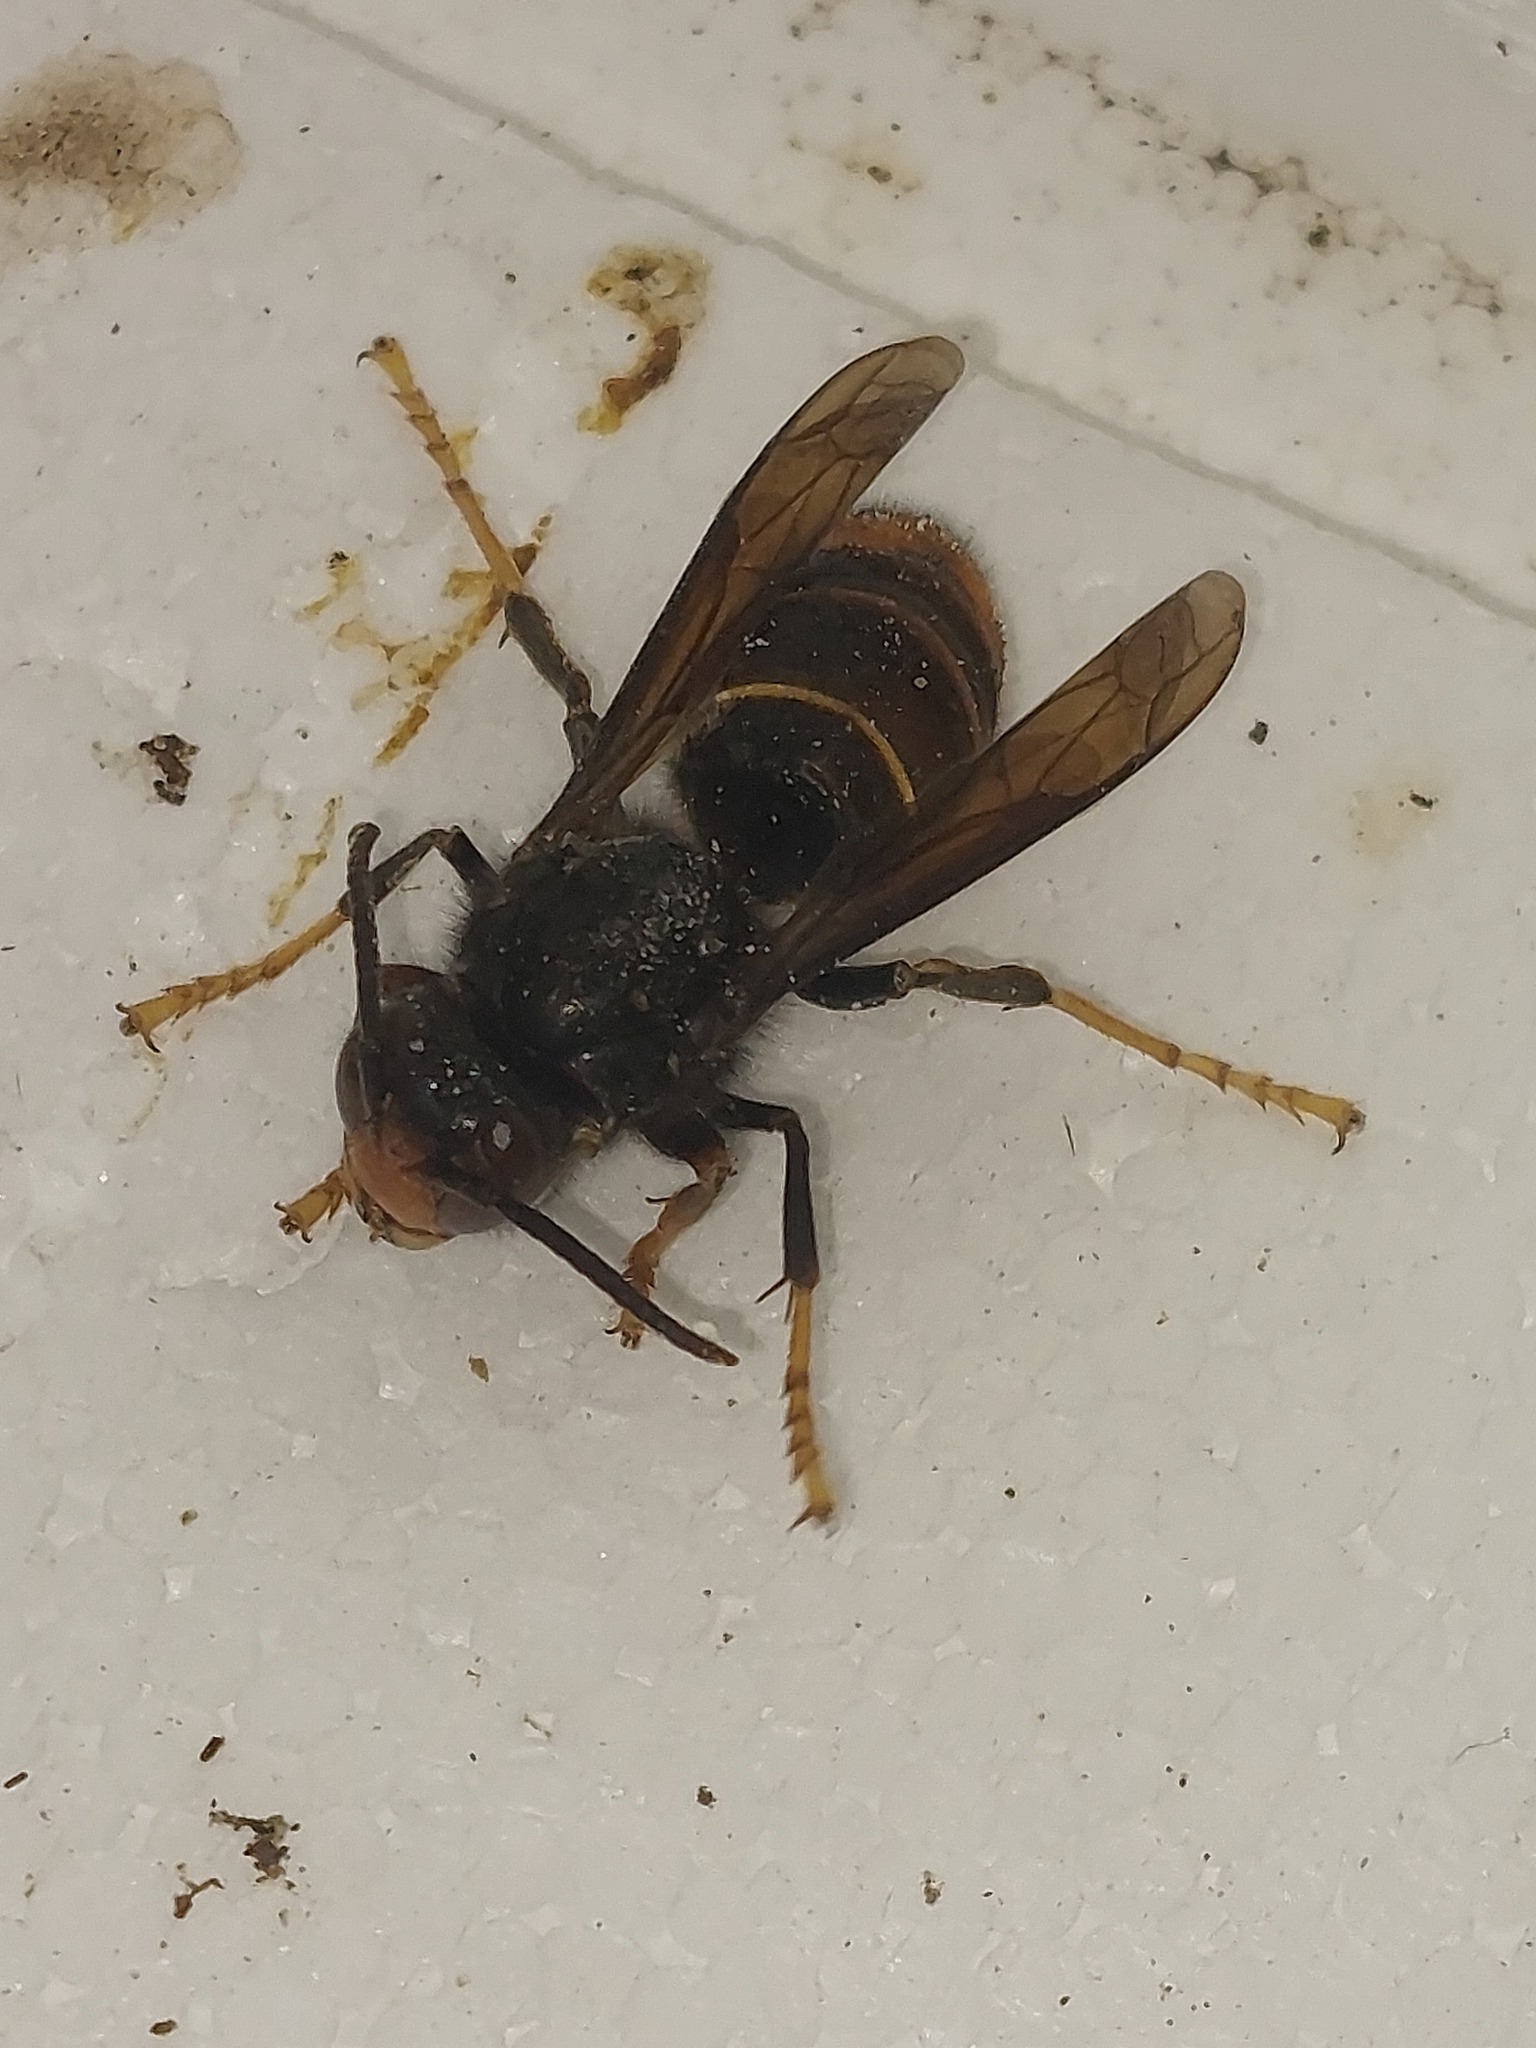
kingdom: Animalia
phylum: Arthropoda
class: Insecta
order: Hymenoptera
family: Vespidae
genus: Vespa
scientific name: Vespa velutina
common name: Asian hornet
